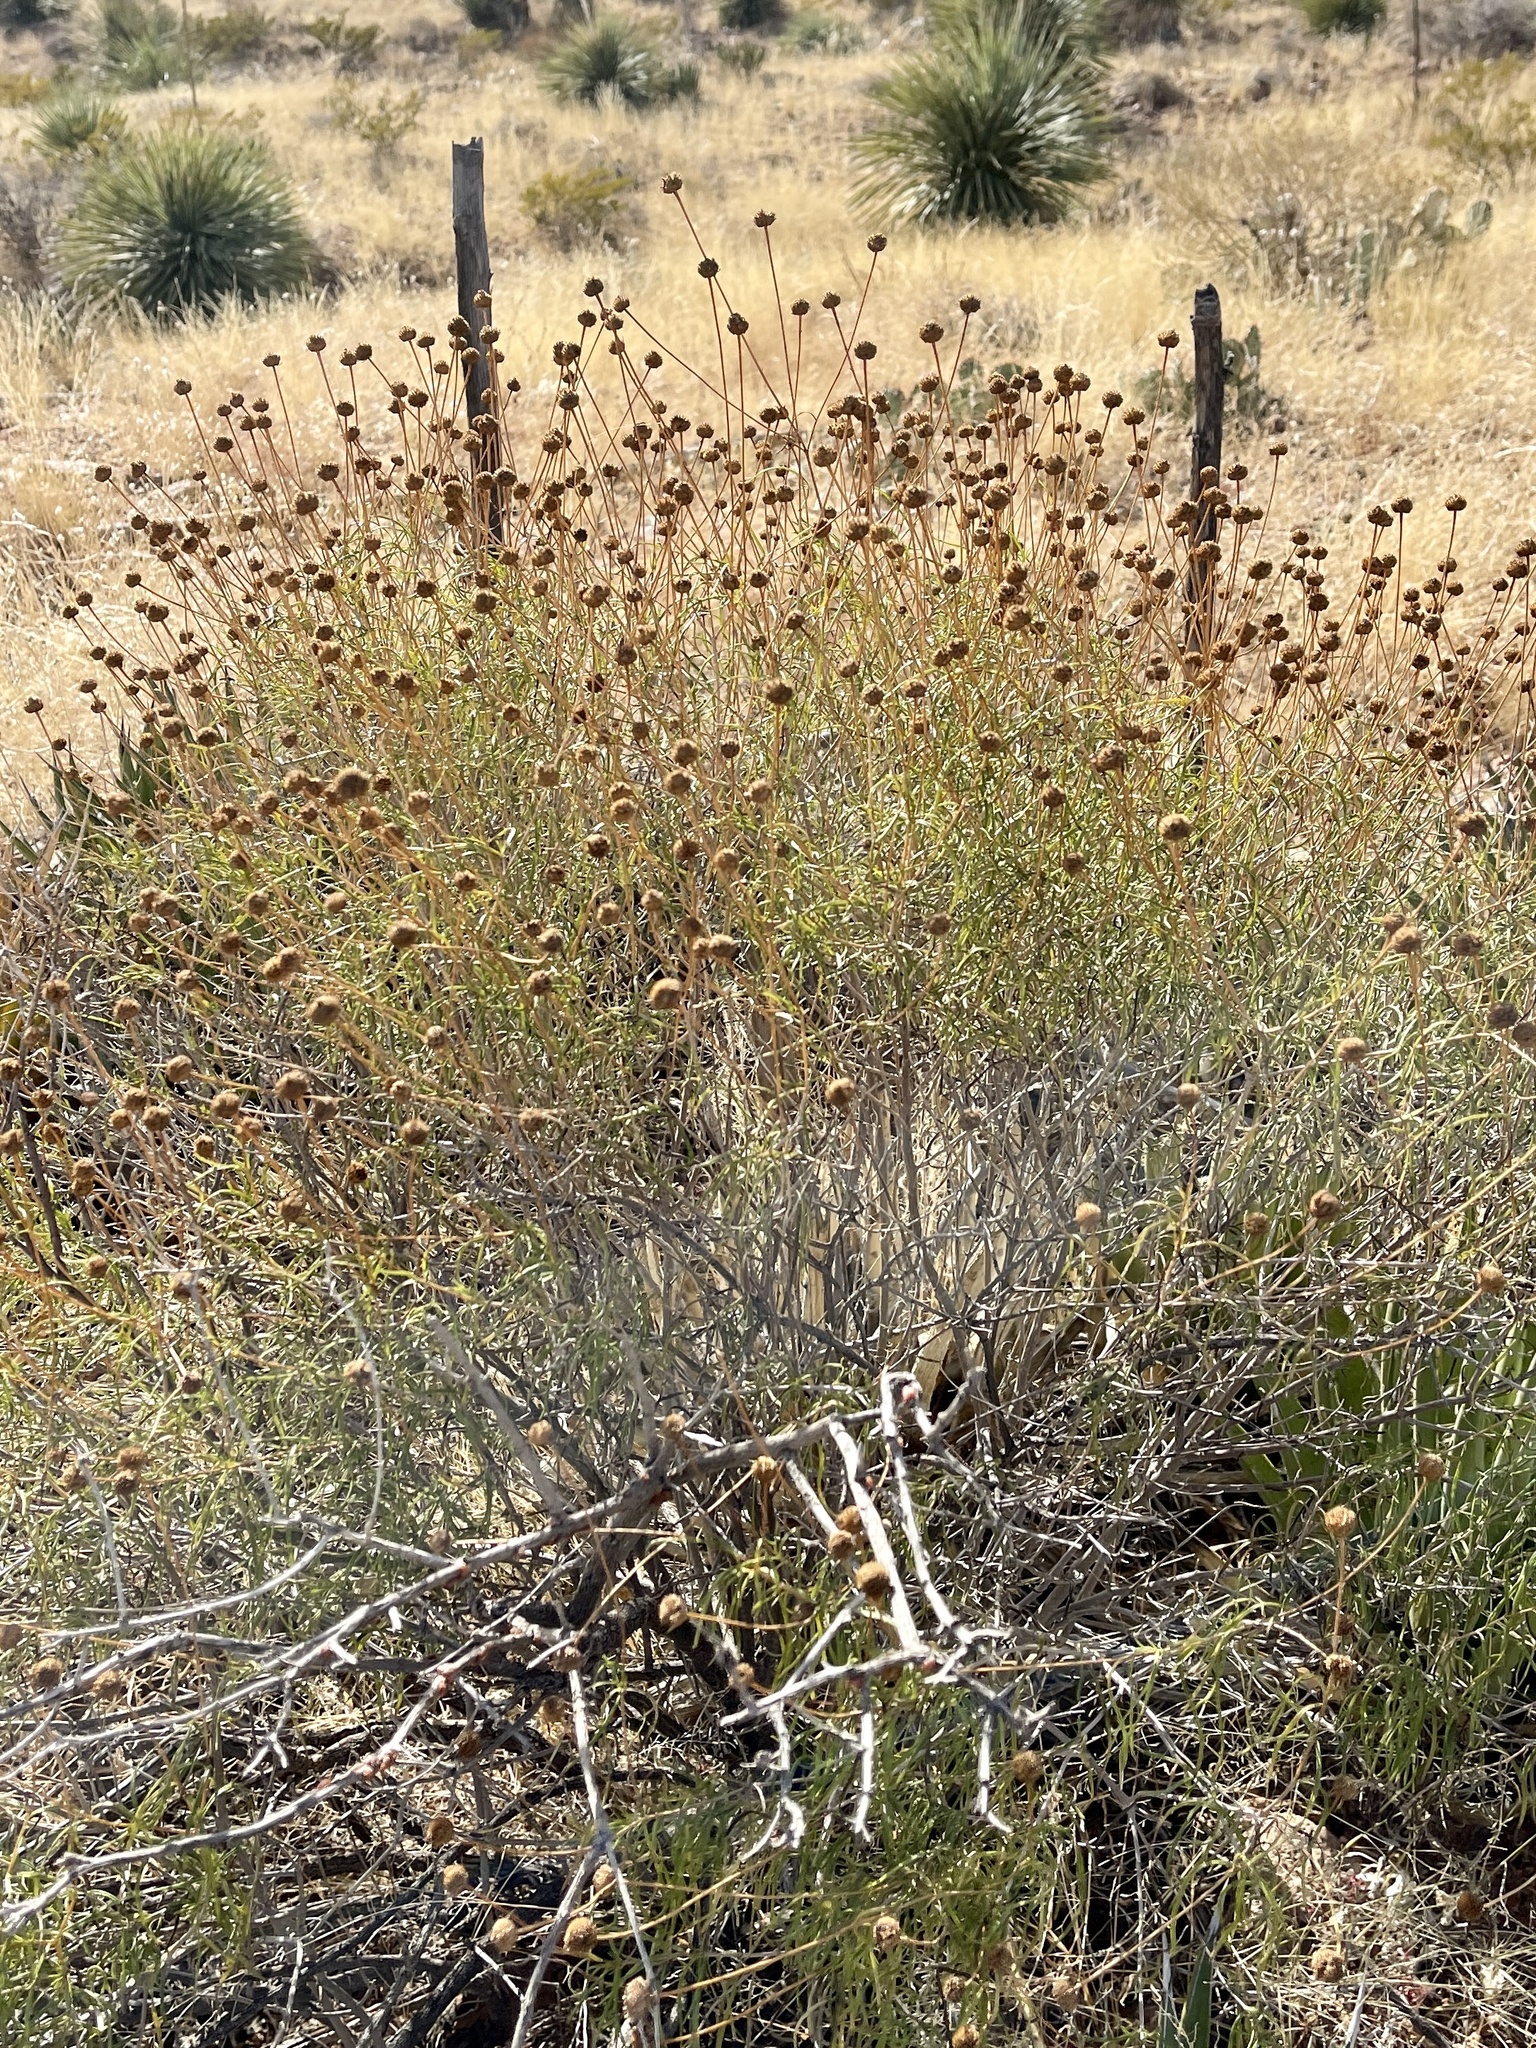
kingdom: Plantae
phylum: Tracheophyta
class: Magnoliopsida
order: Asterales
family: Asteraceae
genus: Sidneya
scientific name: Sidneya tenuifolia
